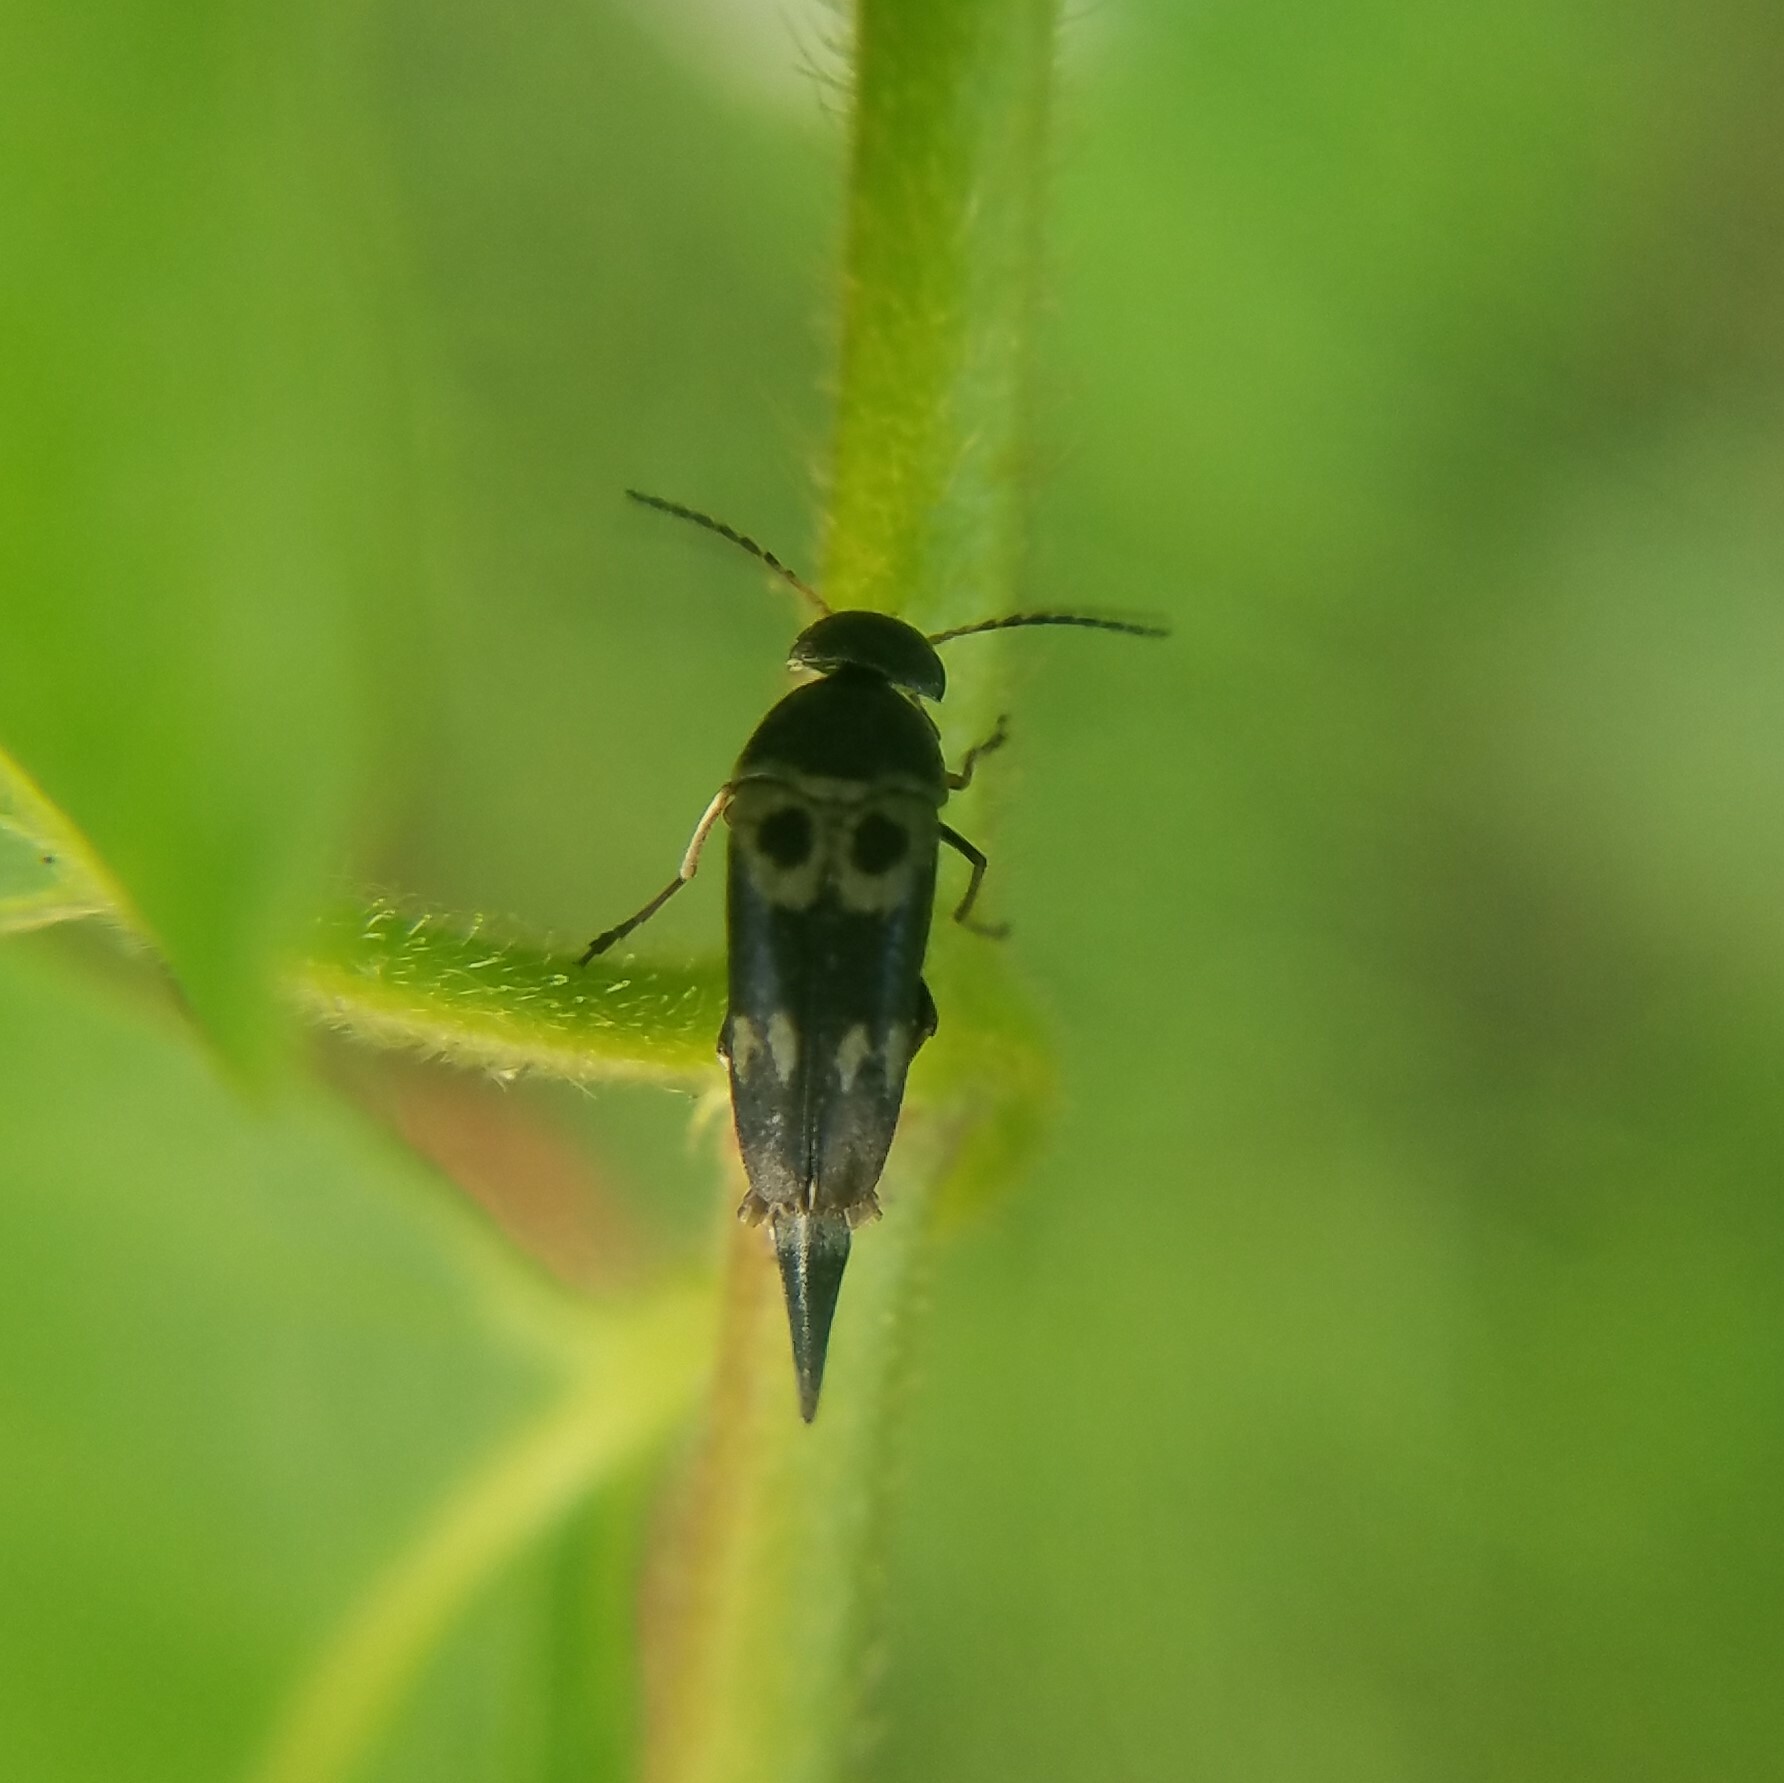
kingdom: Animalia
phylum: Arthropoda
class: Insecta
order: Coleoptera
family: Mordellidae
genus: Glipa
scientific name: Glipa oculata
